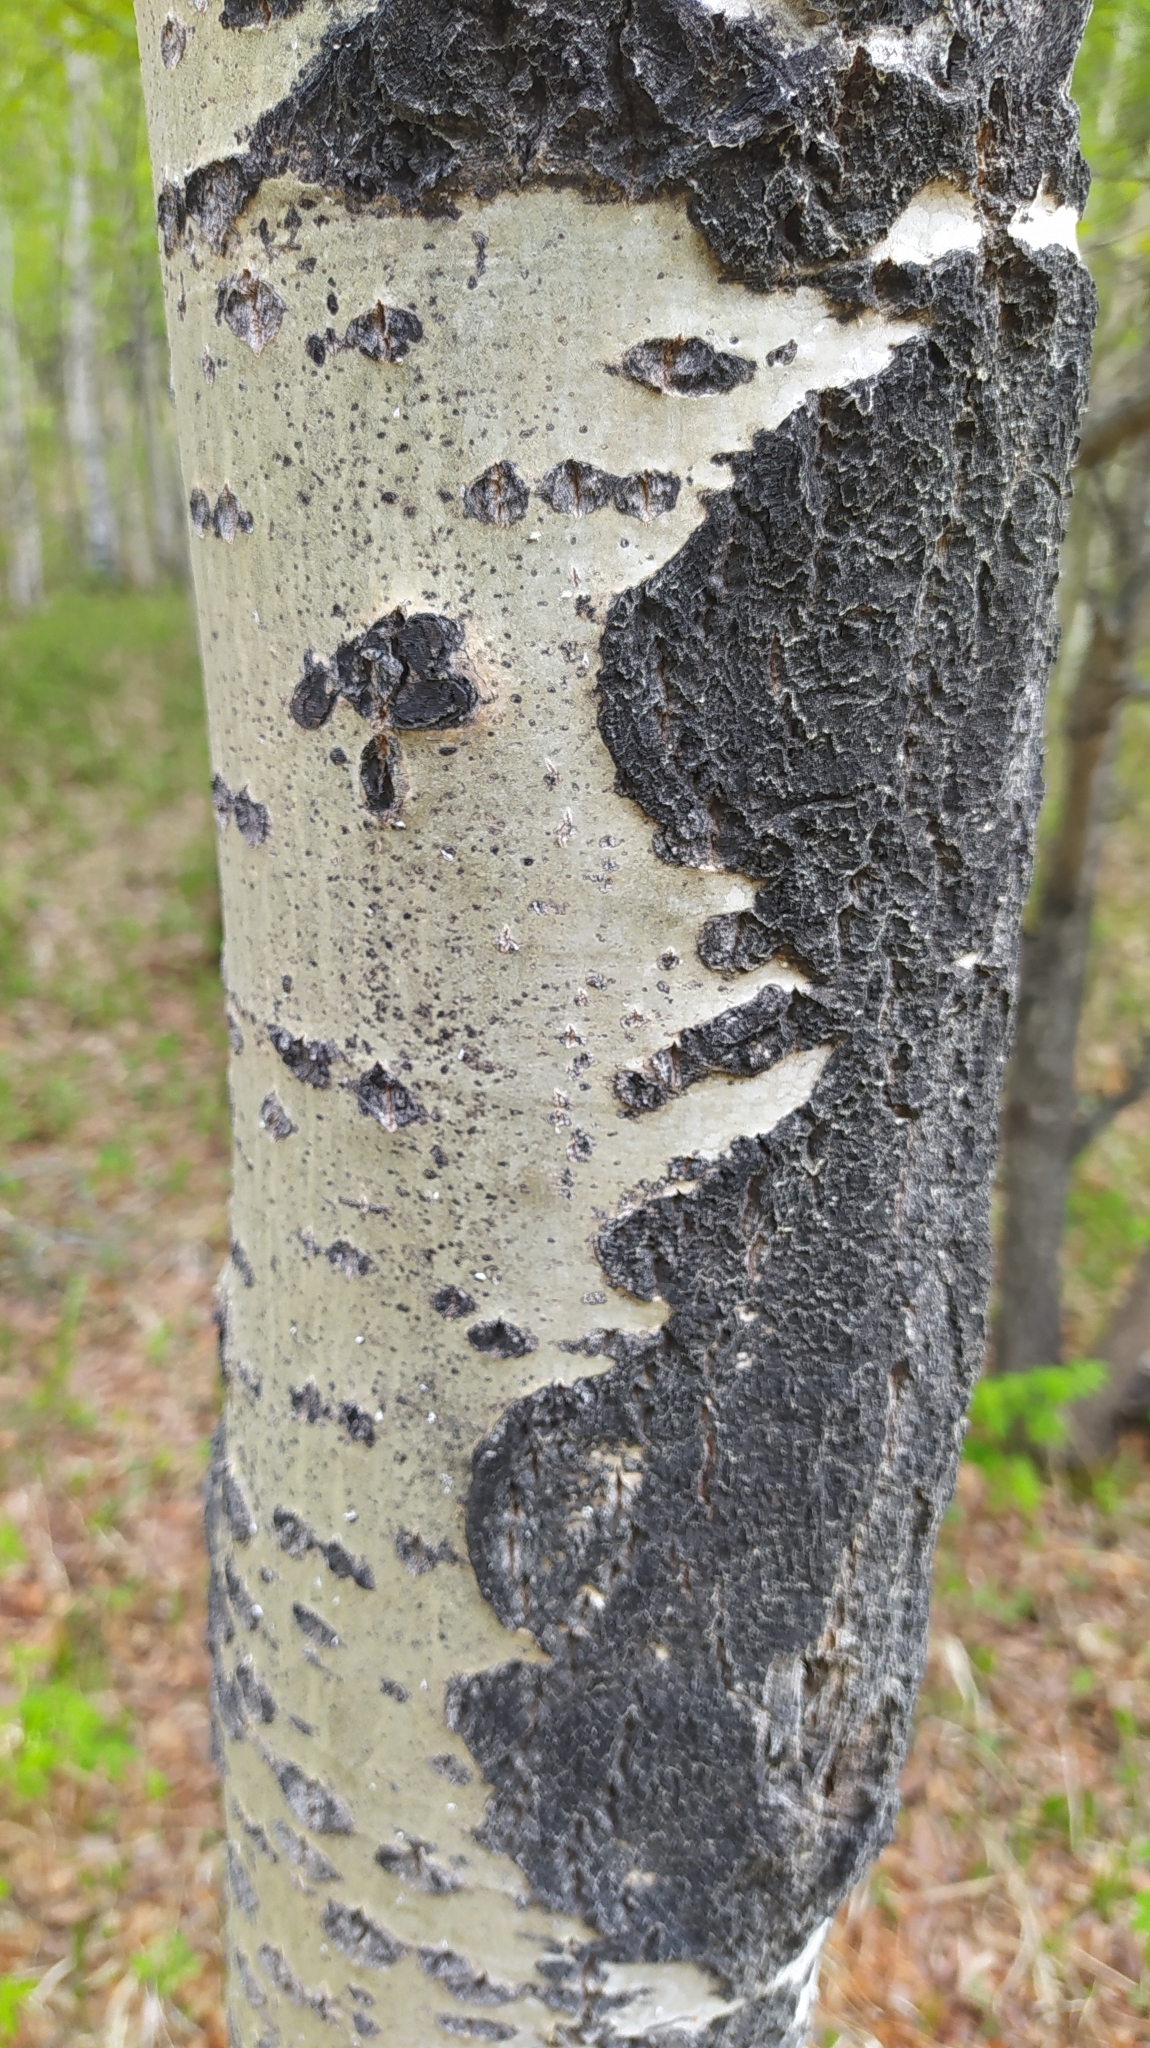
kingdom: Plantae
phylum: Tracheophyta
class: Magnoliopsida
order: Malpighiales
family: Salicaceae
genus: Populus
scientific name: Populus tremula
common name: European aspen
